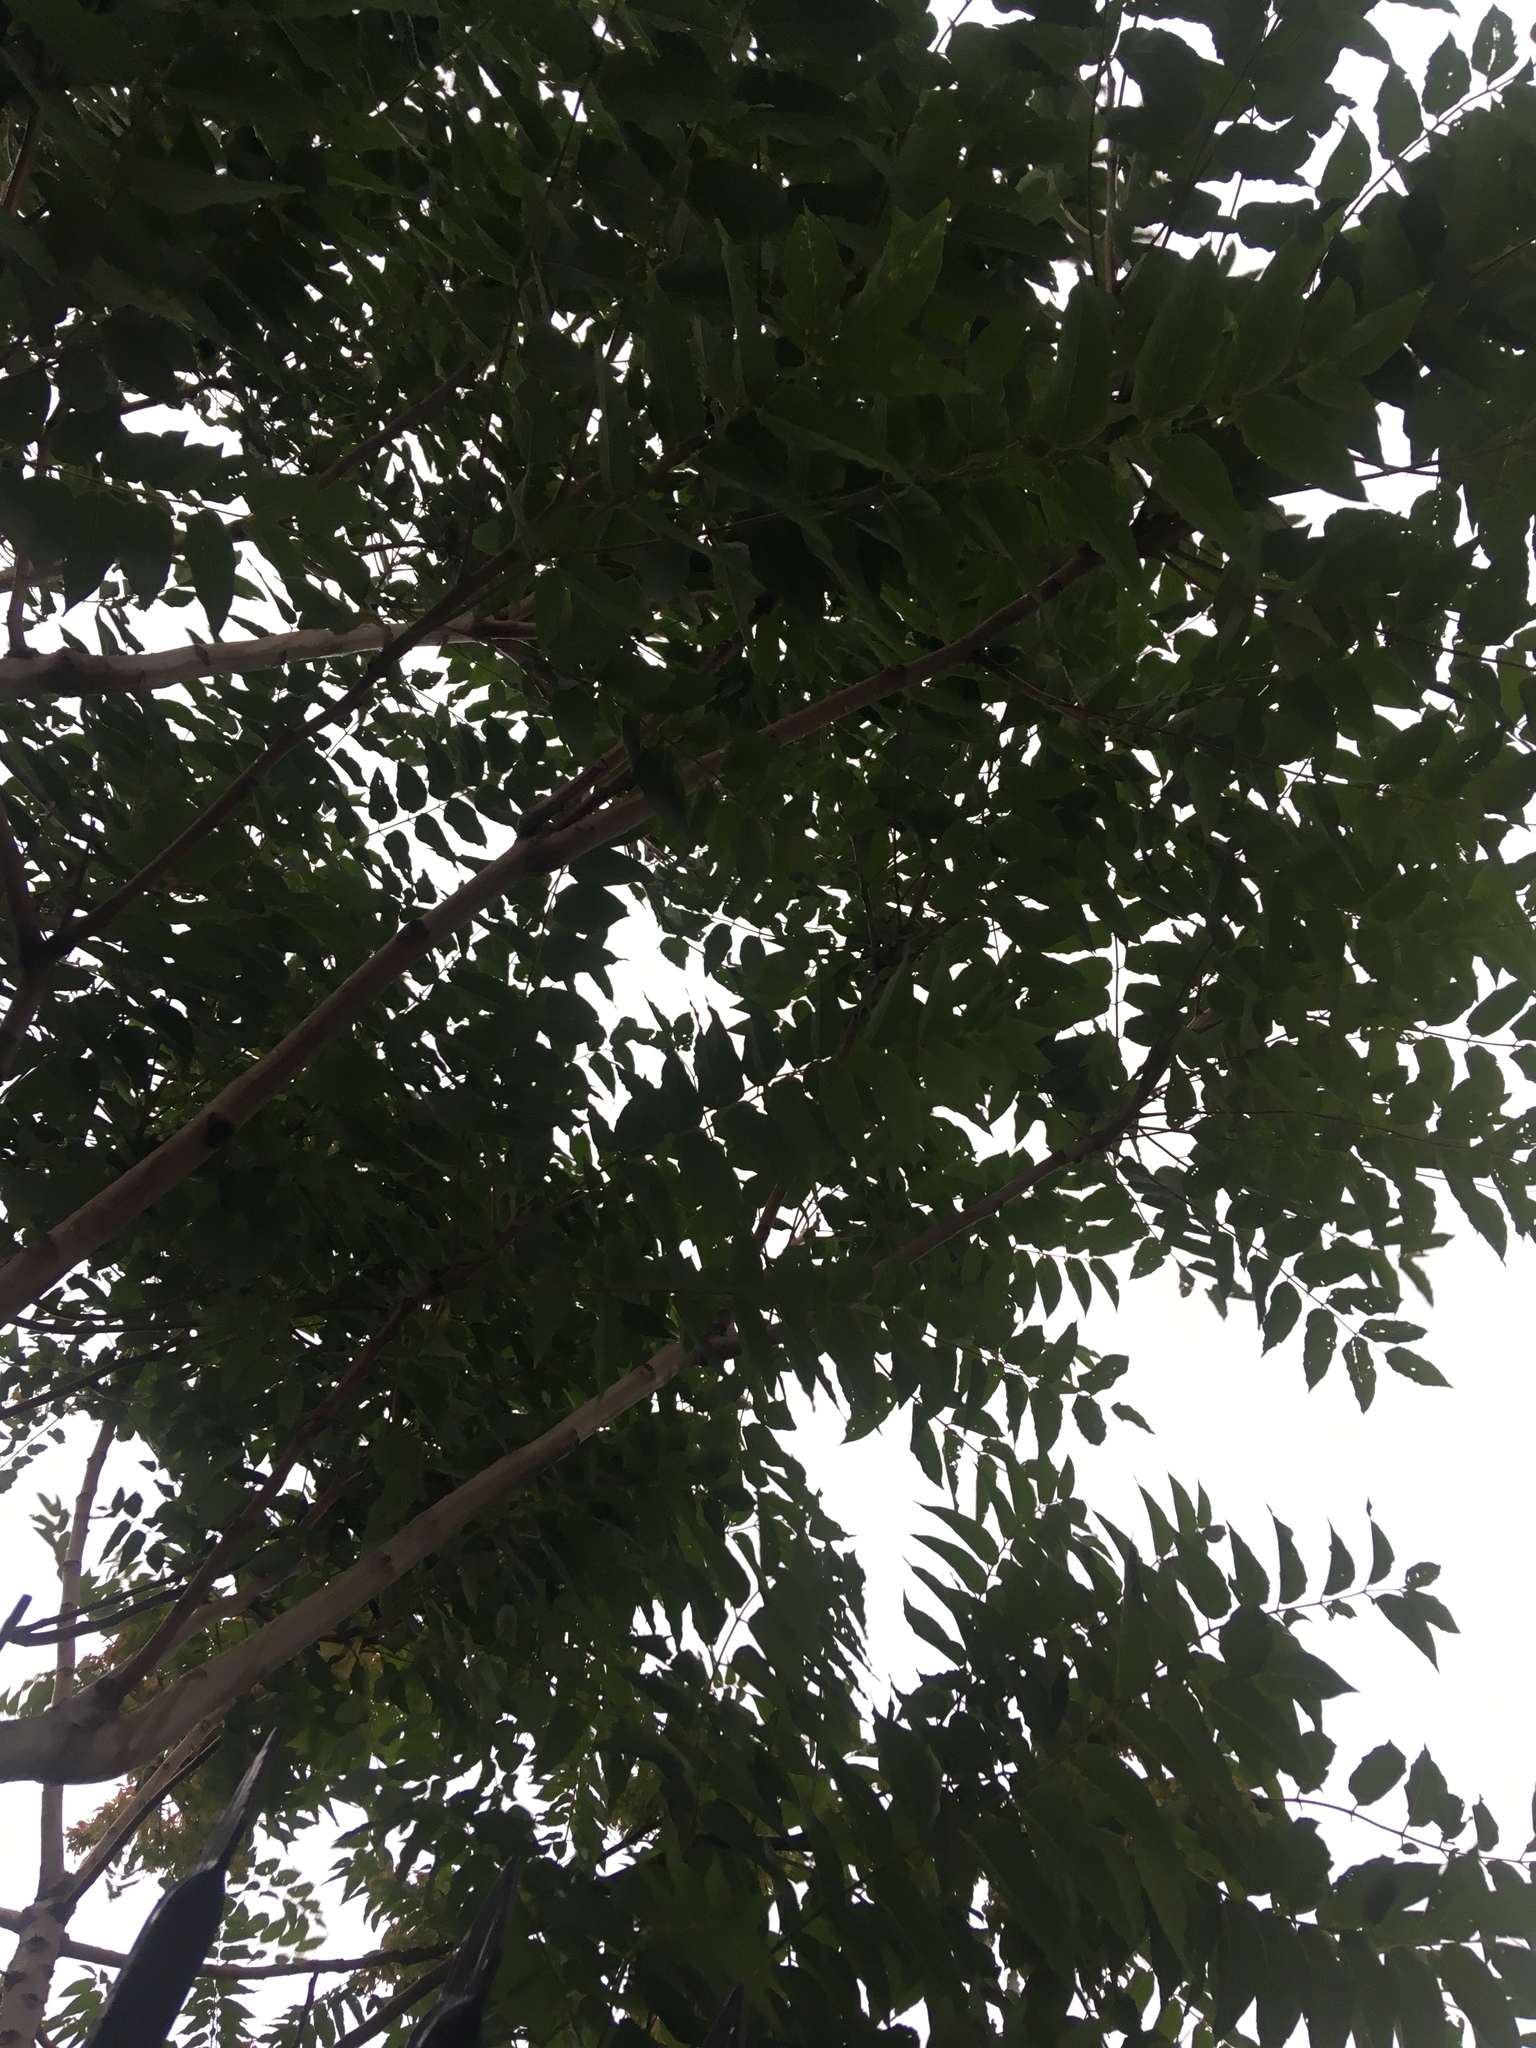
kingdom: Plantae
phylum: Tracheophyta
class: Magnoliopsida
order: Sapindales
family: Simaroubaceae
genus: Ailanthus
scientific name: Ailanthus altissima
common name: Tree-of-heaven
